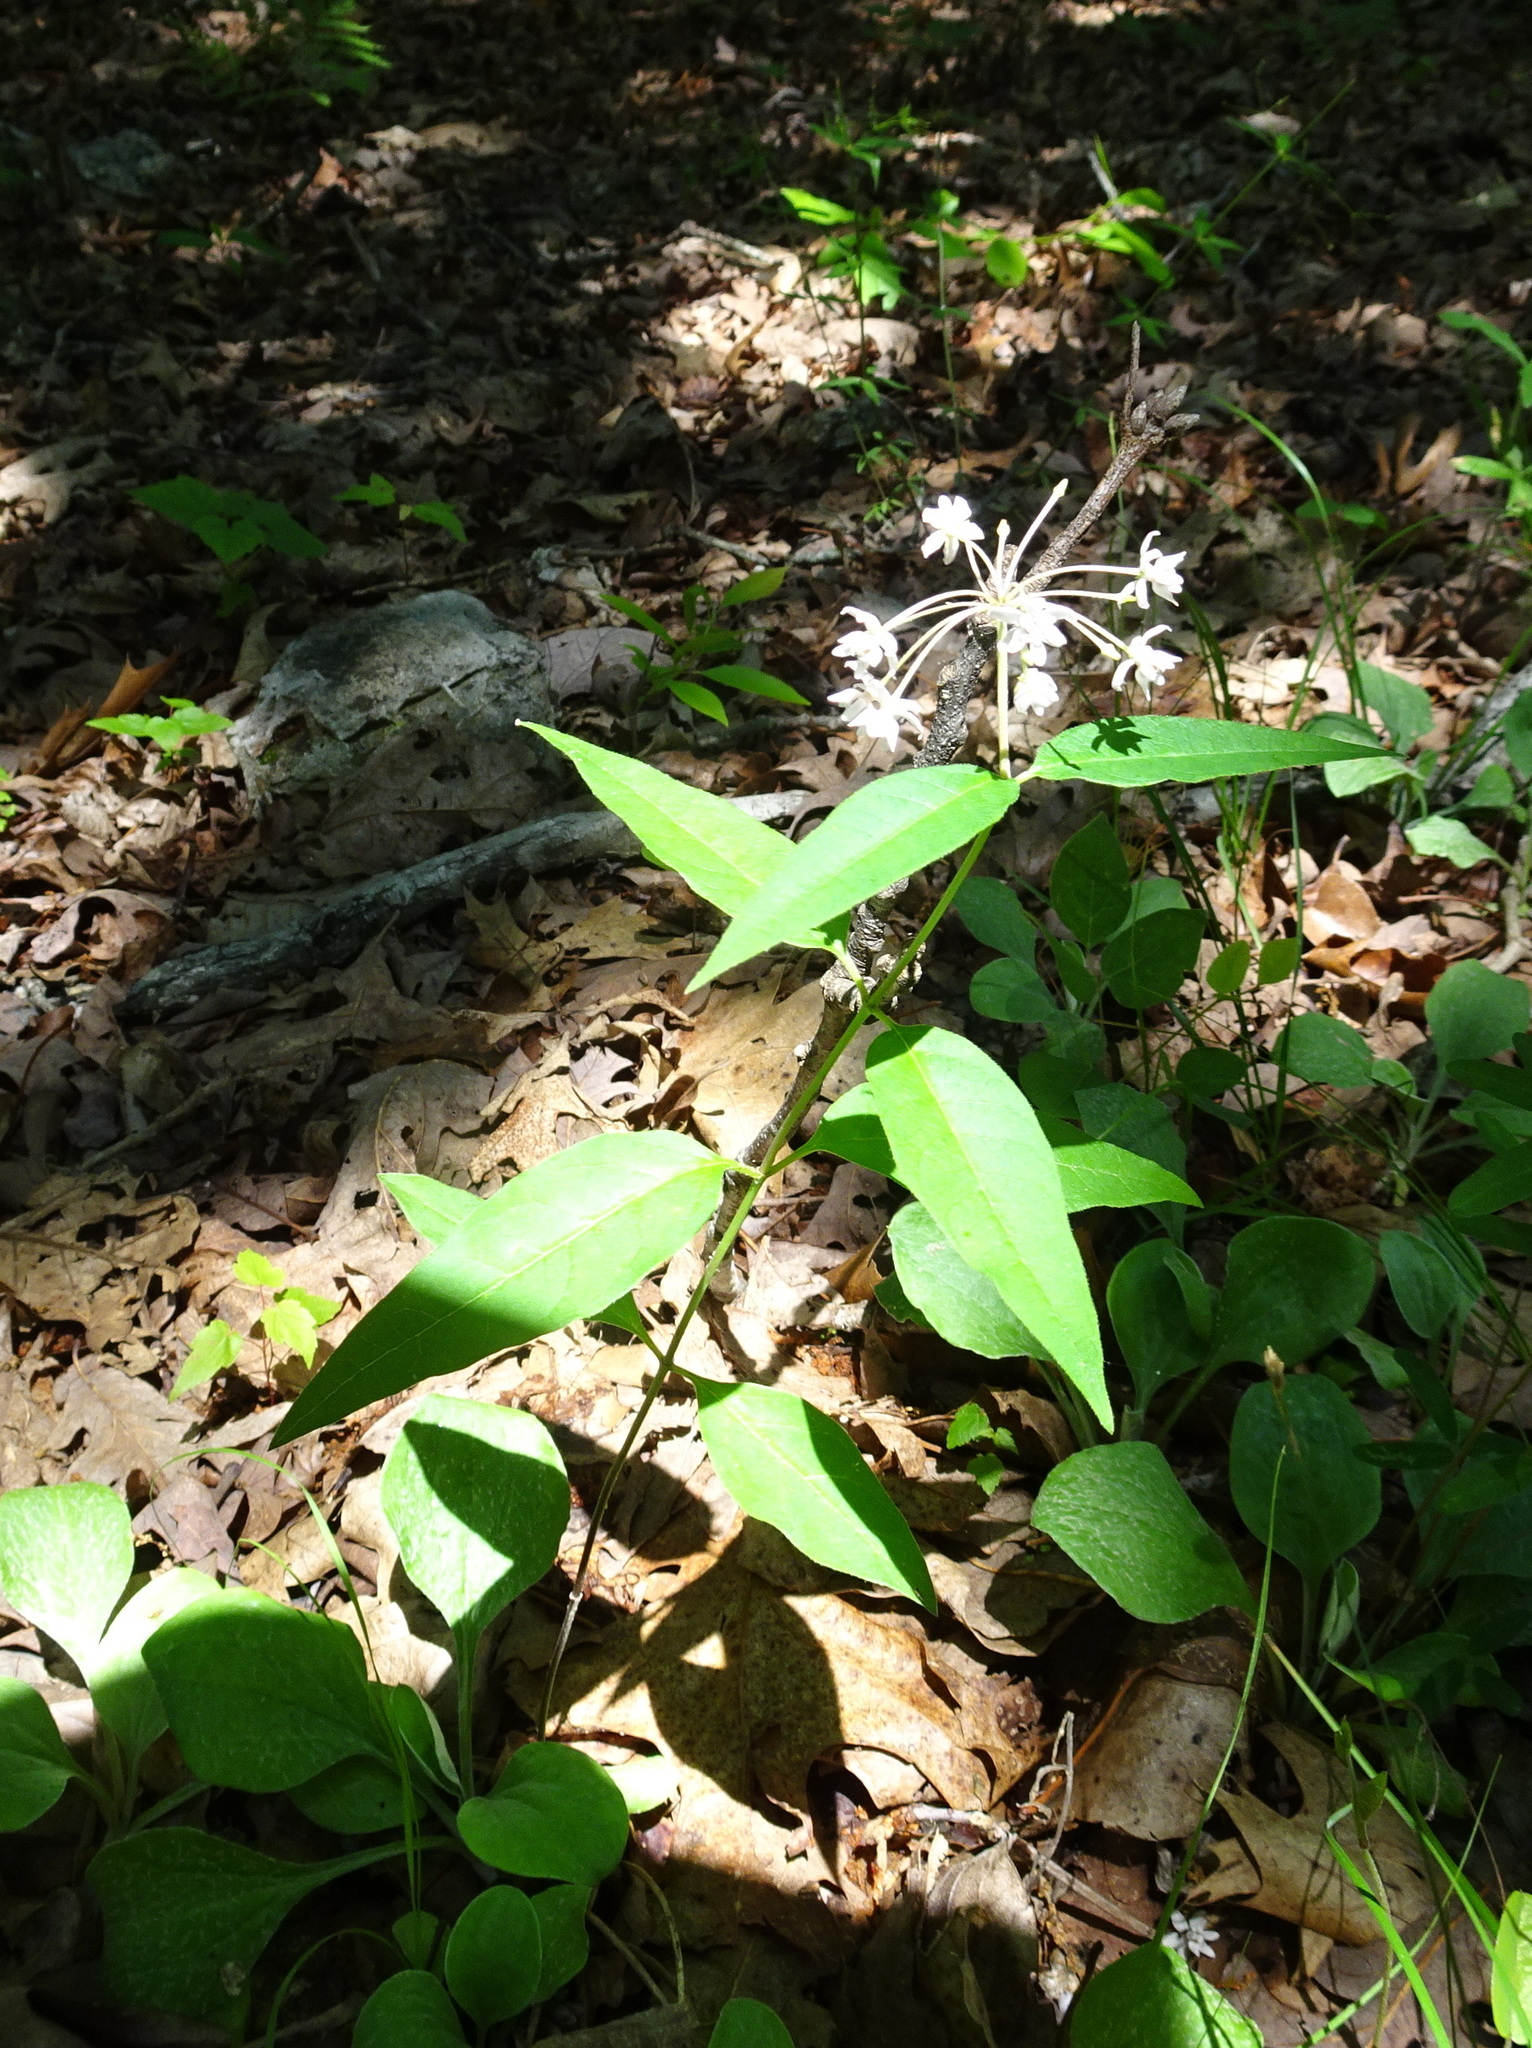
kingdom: Plantae
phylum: Tracheophyta
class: Magnoliopsida
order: Gentianales
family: Apocynaceae
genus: Asclepias
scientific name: Asclepias quadrifolia
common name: Whorled milkweed
